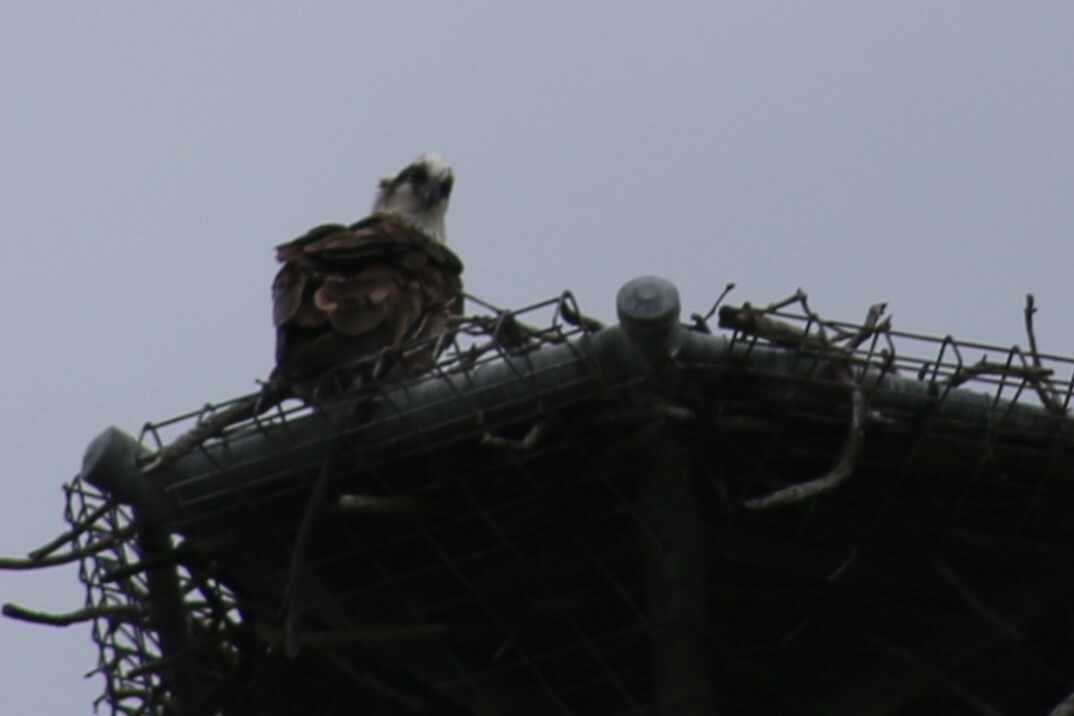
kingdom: Animalia
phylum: Chordata
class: Aves
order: Accipitriformes
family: Pandionidae
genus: Pandion
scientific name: Pandion cristatus
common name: Eastern osprey
